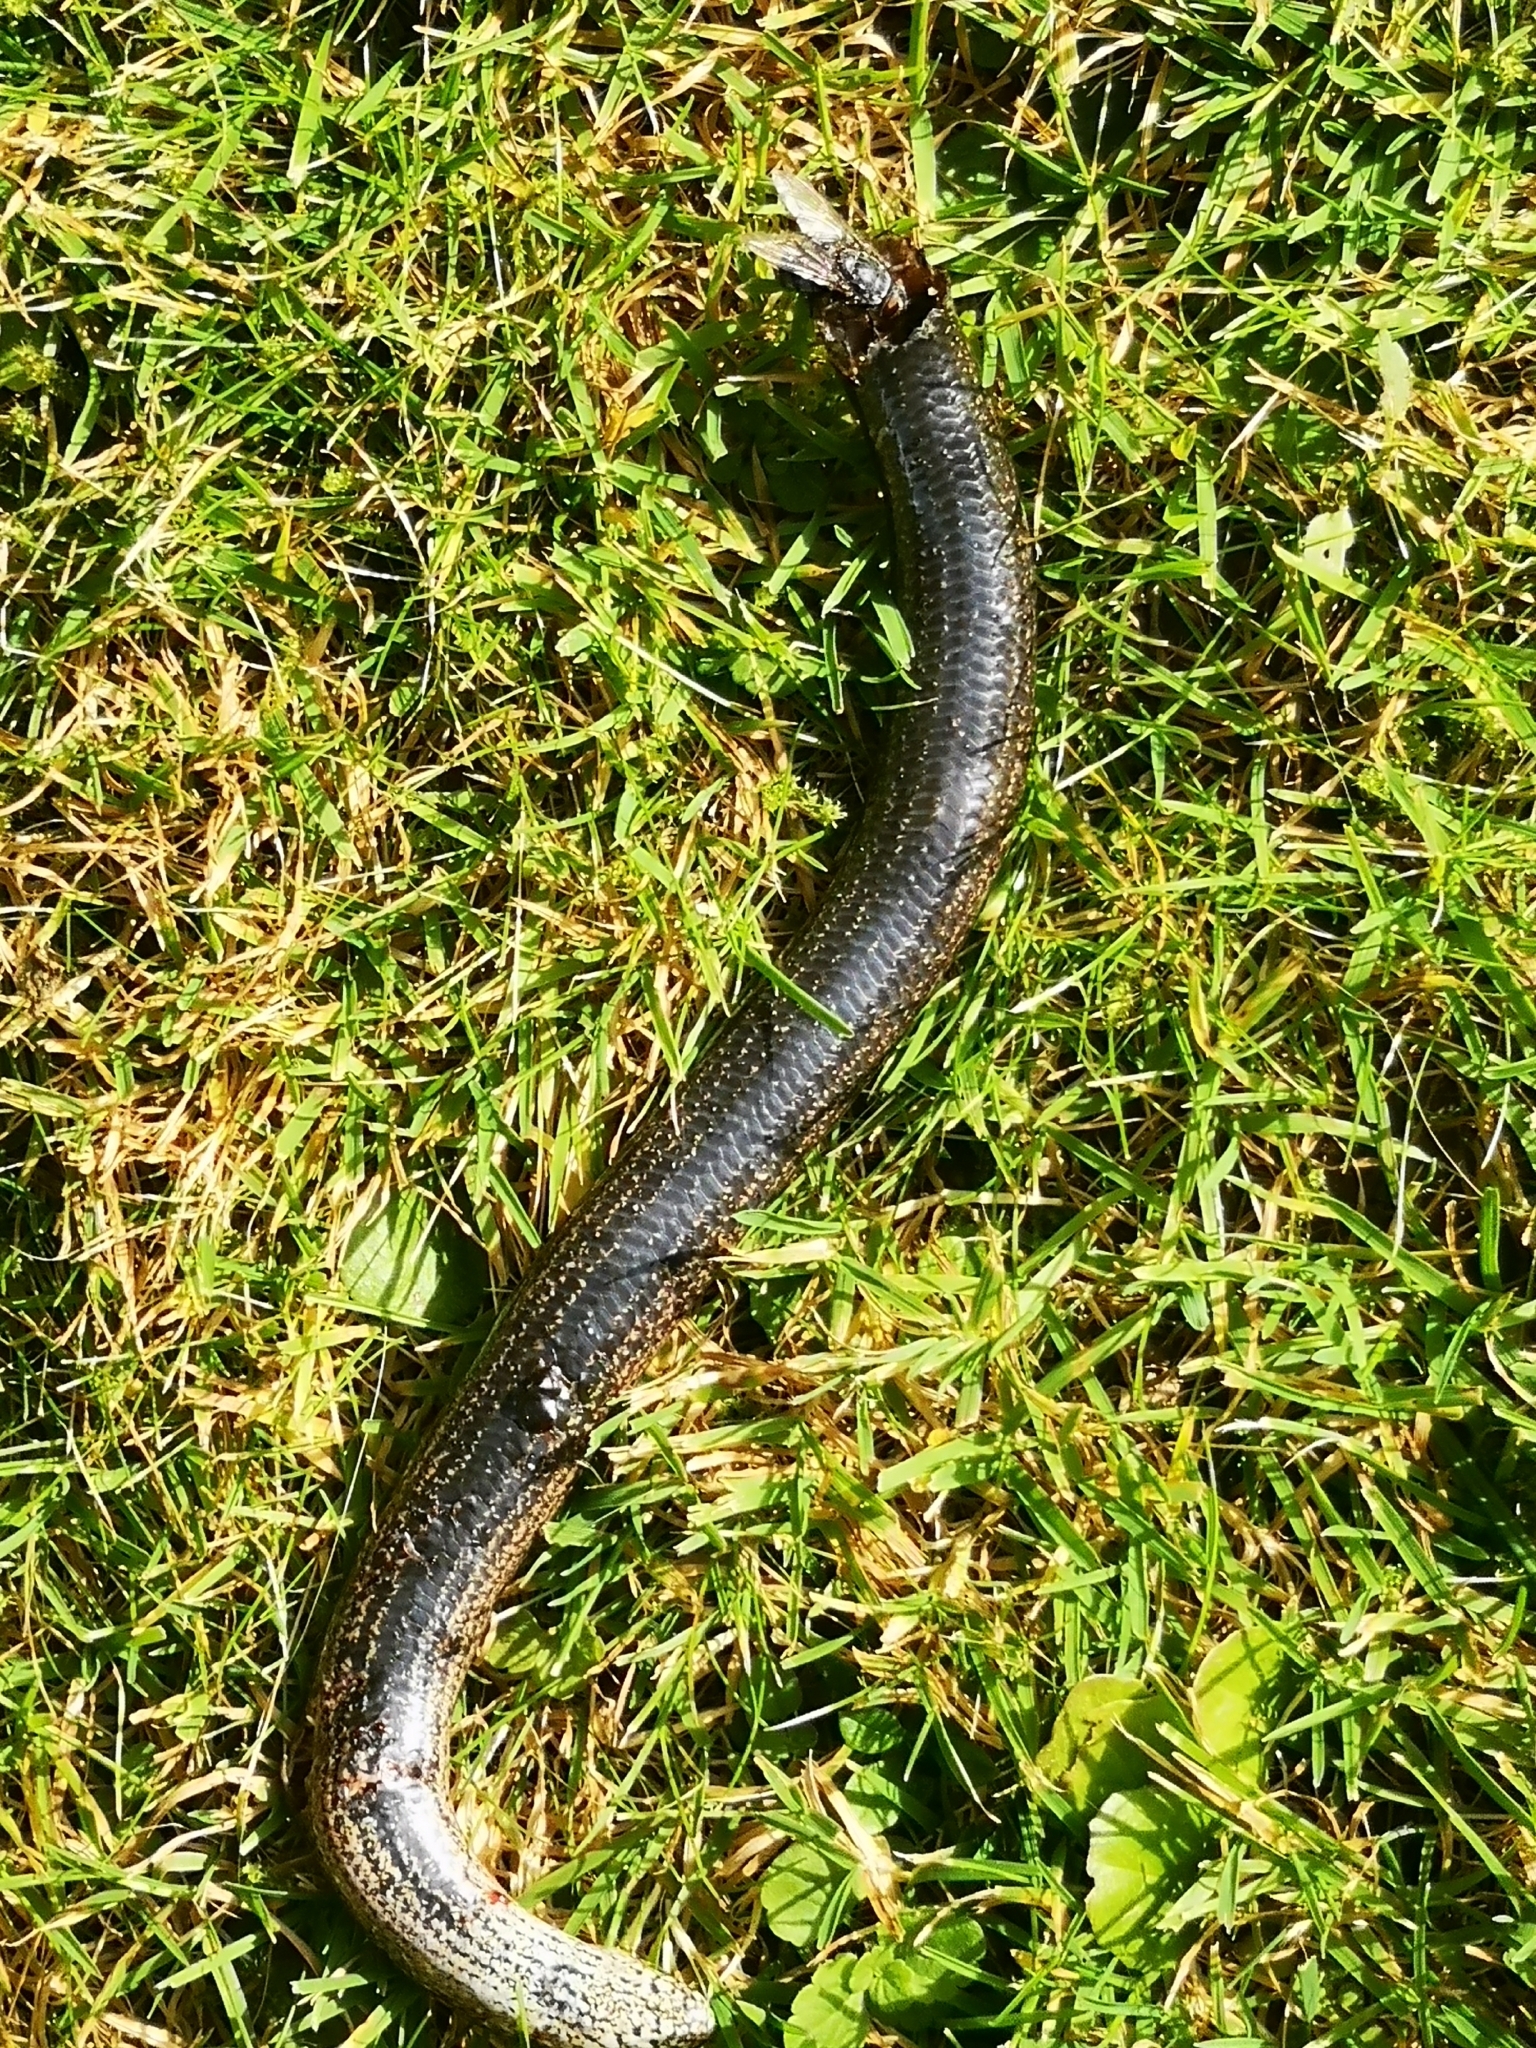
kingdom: Animalia
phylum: Chordata
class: Squamata
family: Anguidae
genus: Anguis
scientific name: Anguis fragilis
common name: Slow worm
